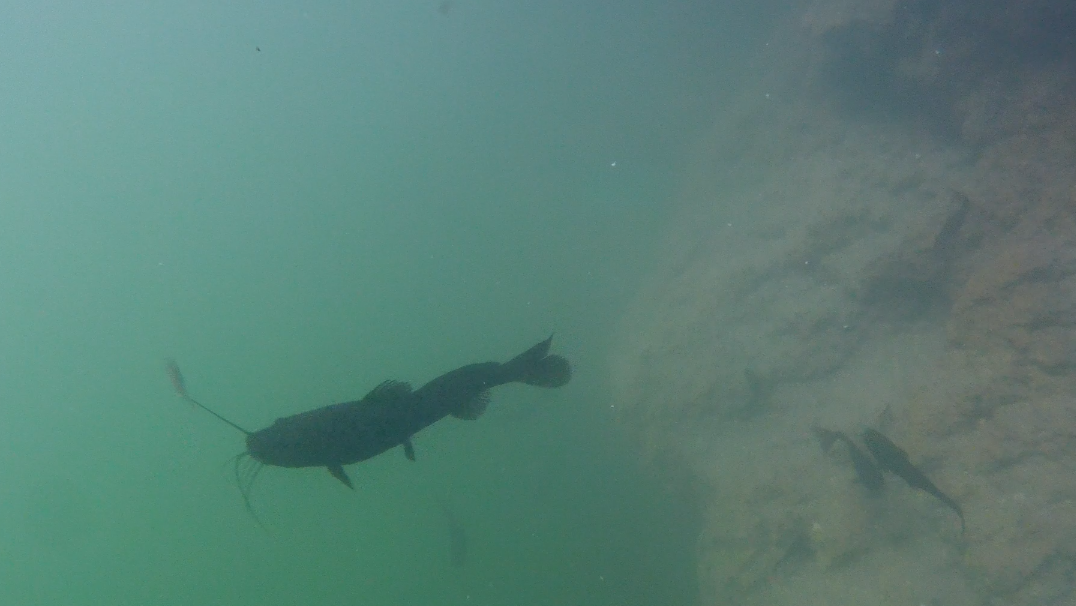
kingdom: Animalia
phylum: Chordata
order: Siluriformes
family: Heptapteridae
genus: Rhamdia
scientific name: Rhamdia guatemalensis
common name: Pale catfish
